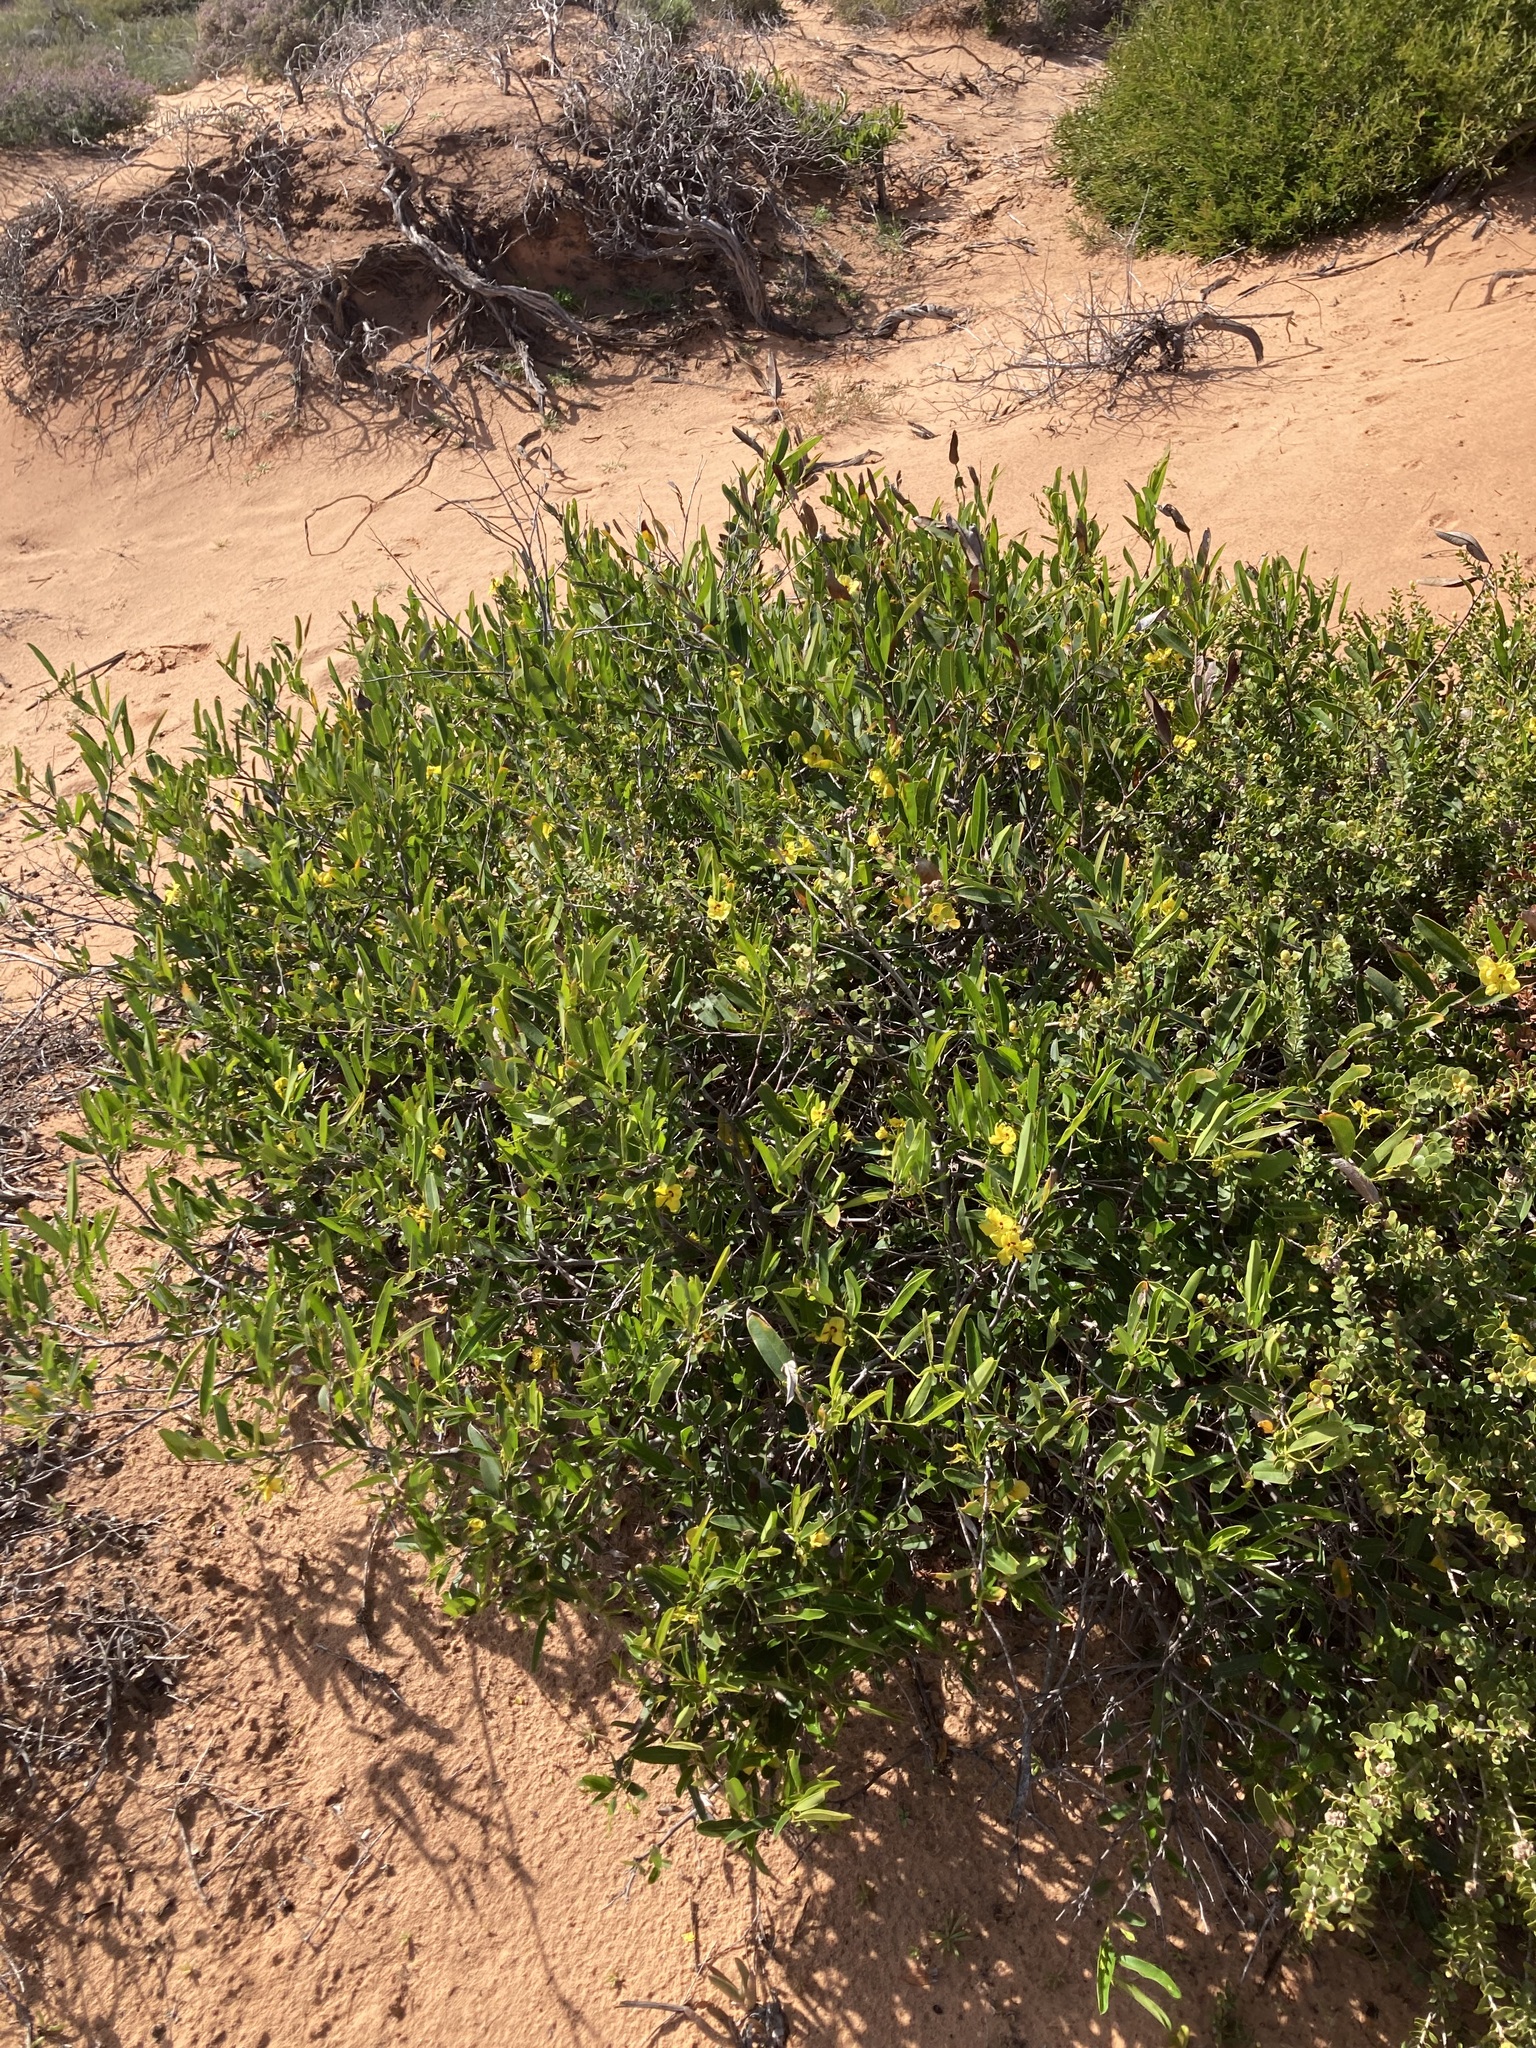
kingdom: Plantae
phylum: Tracheophyta
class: Magnoliopsida
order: Fabales
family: Fabaceae
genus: Labichea
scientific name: Labichea lanceolata
